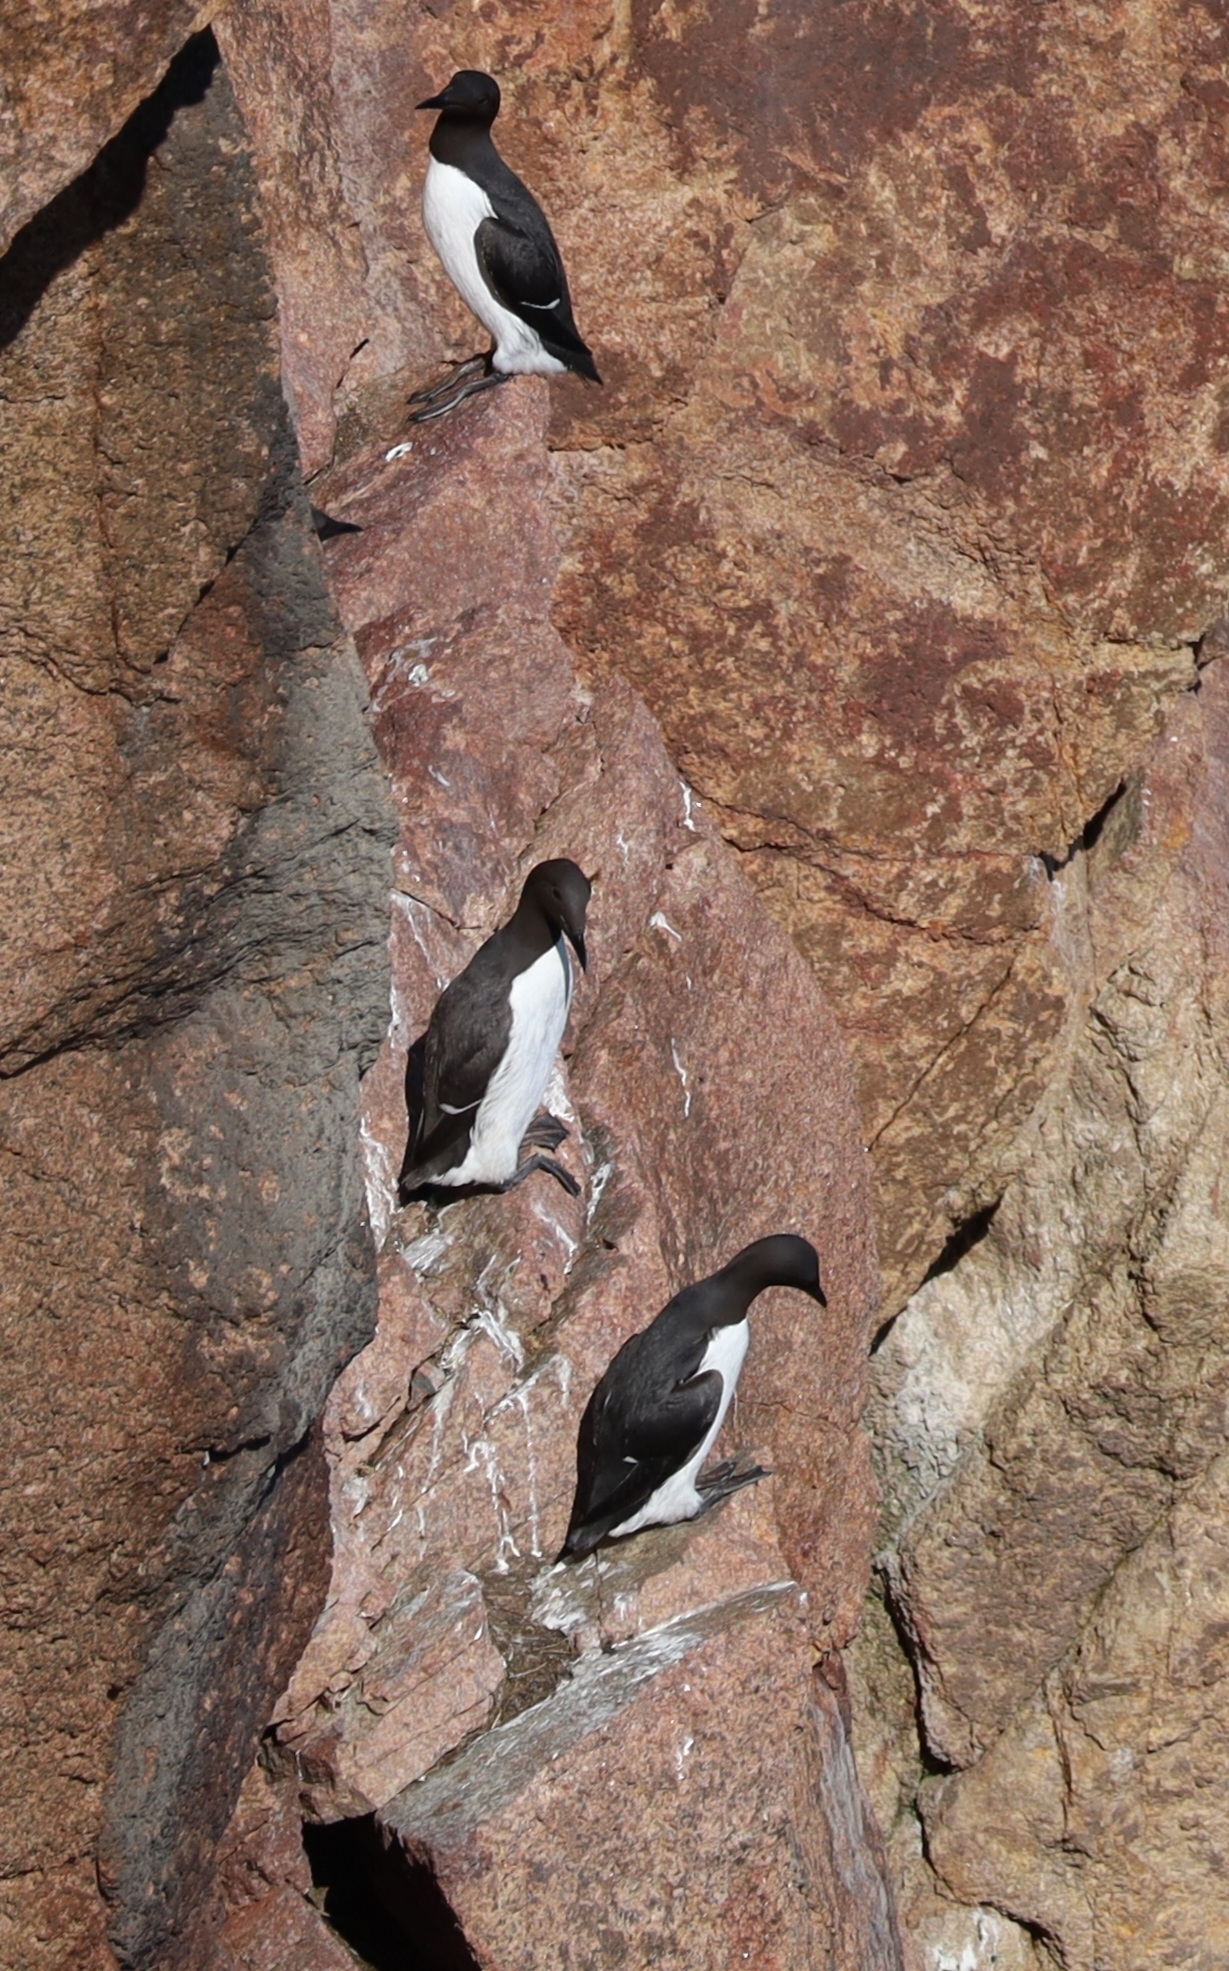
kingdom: Animalia
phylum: Chordata
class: Aves
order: Charadriiformes
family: Alcidae
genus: Uria
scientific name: Uria aalge
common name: Common murre
